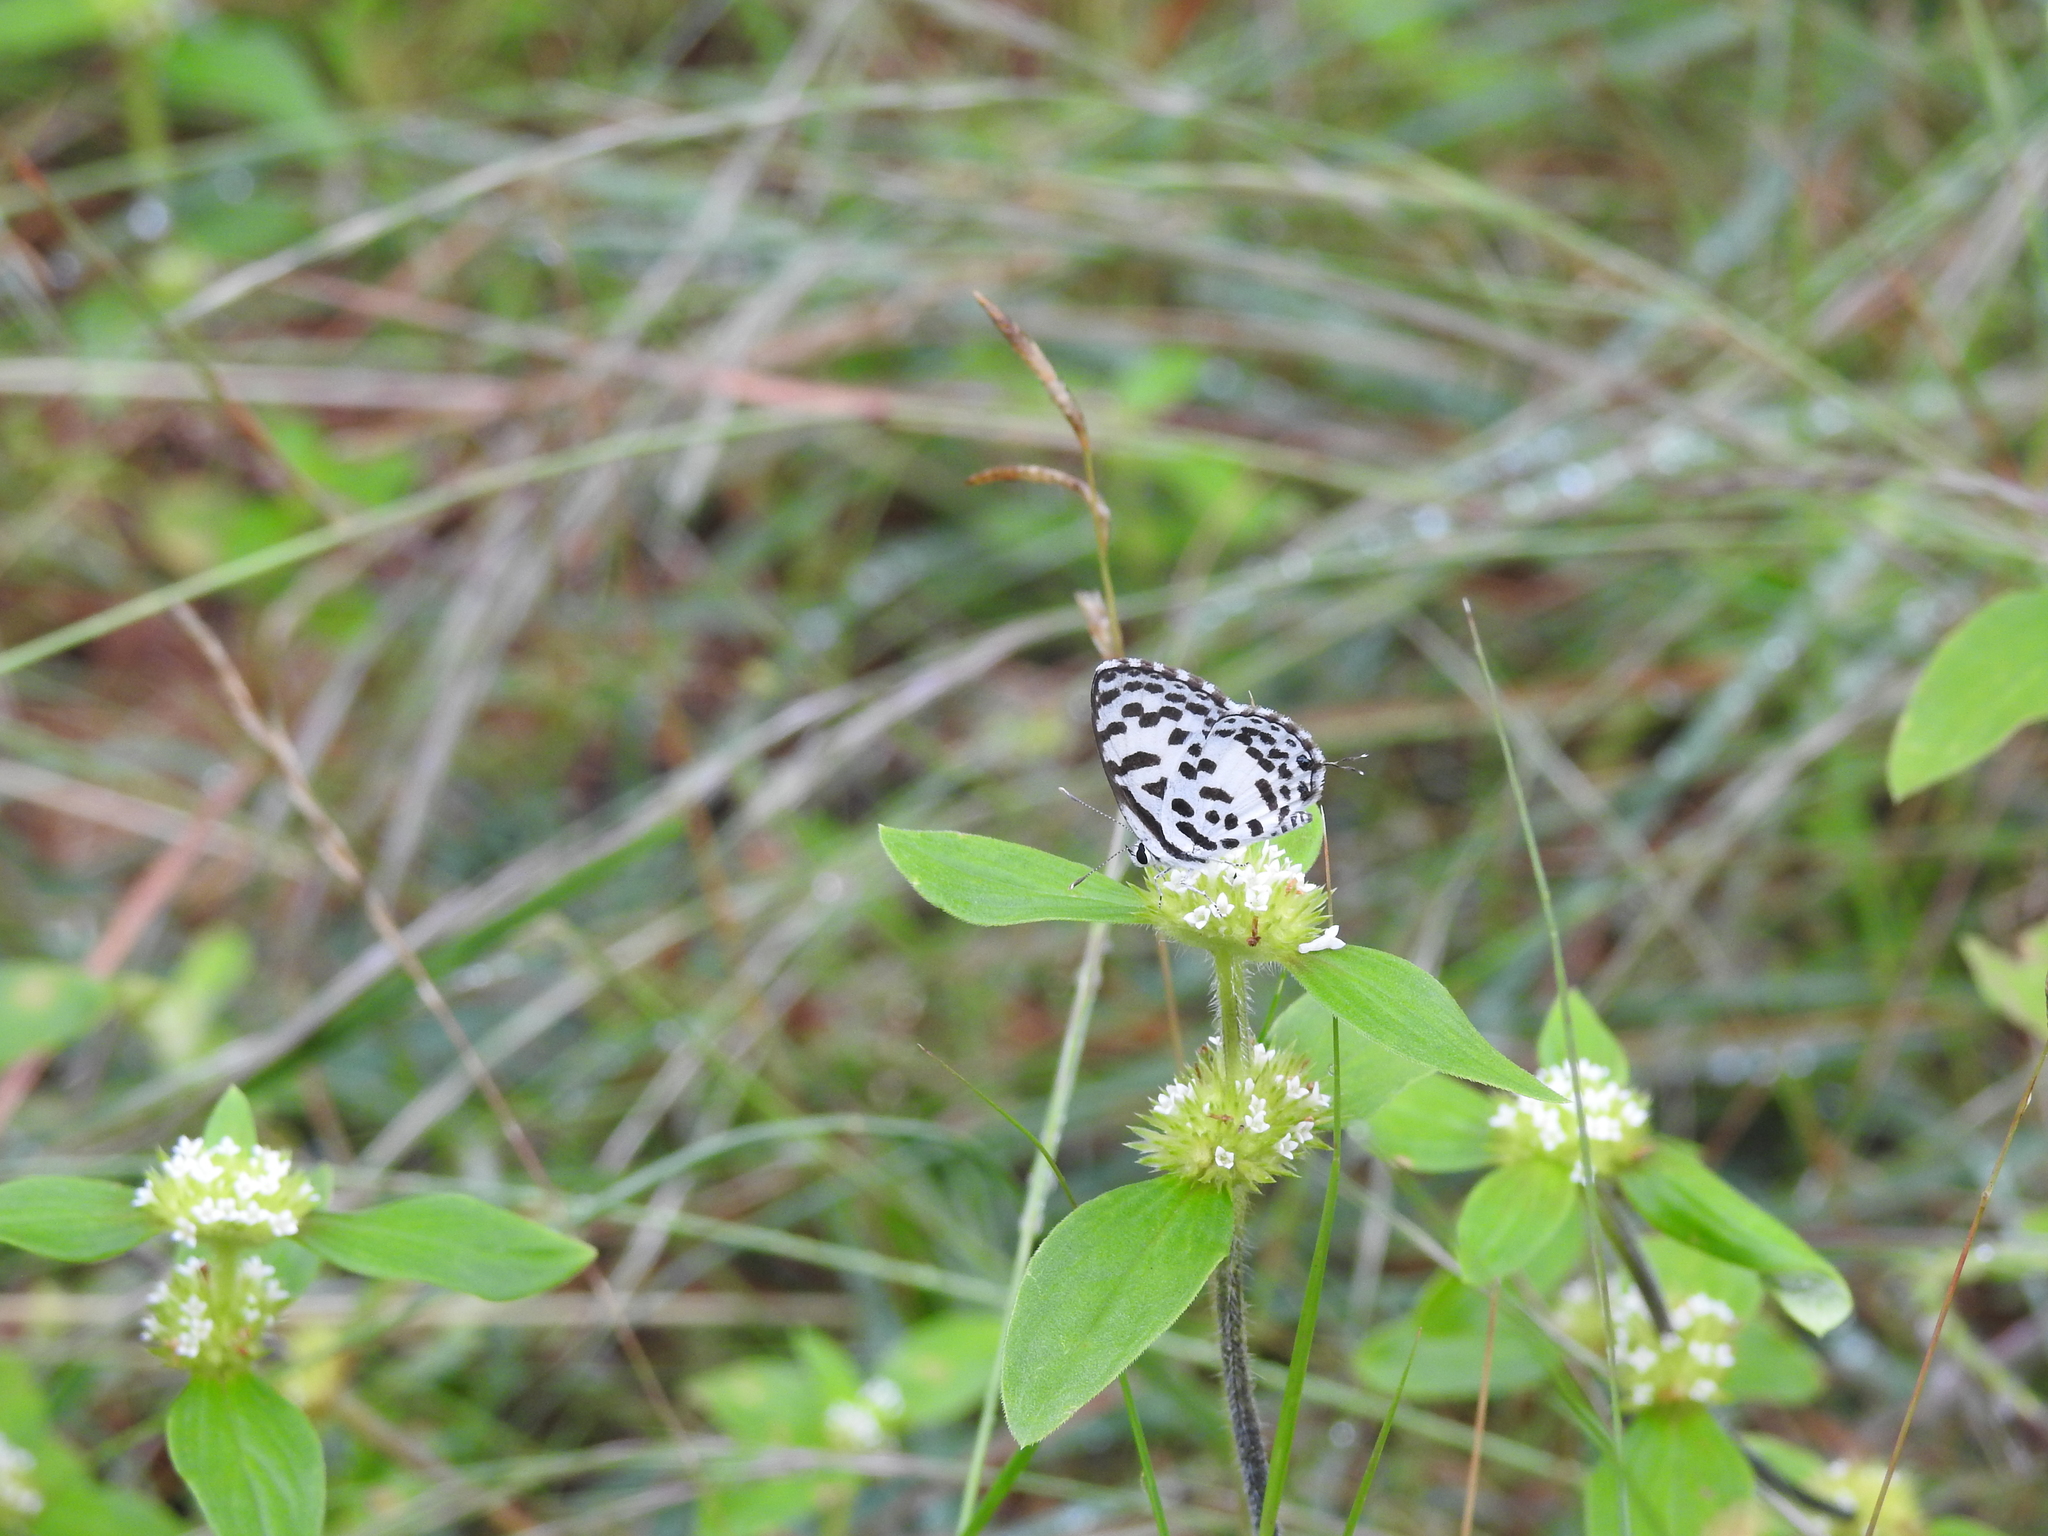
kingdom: Animalia
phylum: Arthropoda
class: Insecta
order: Lepidoptera
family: Lycaenidae
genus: Castalius
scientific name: Castalius rosimon
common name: Common pierrot
